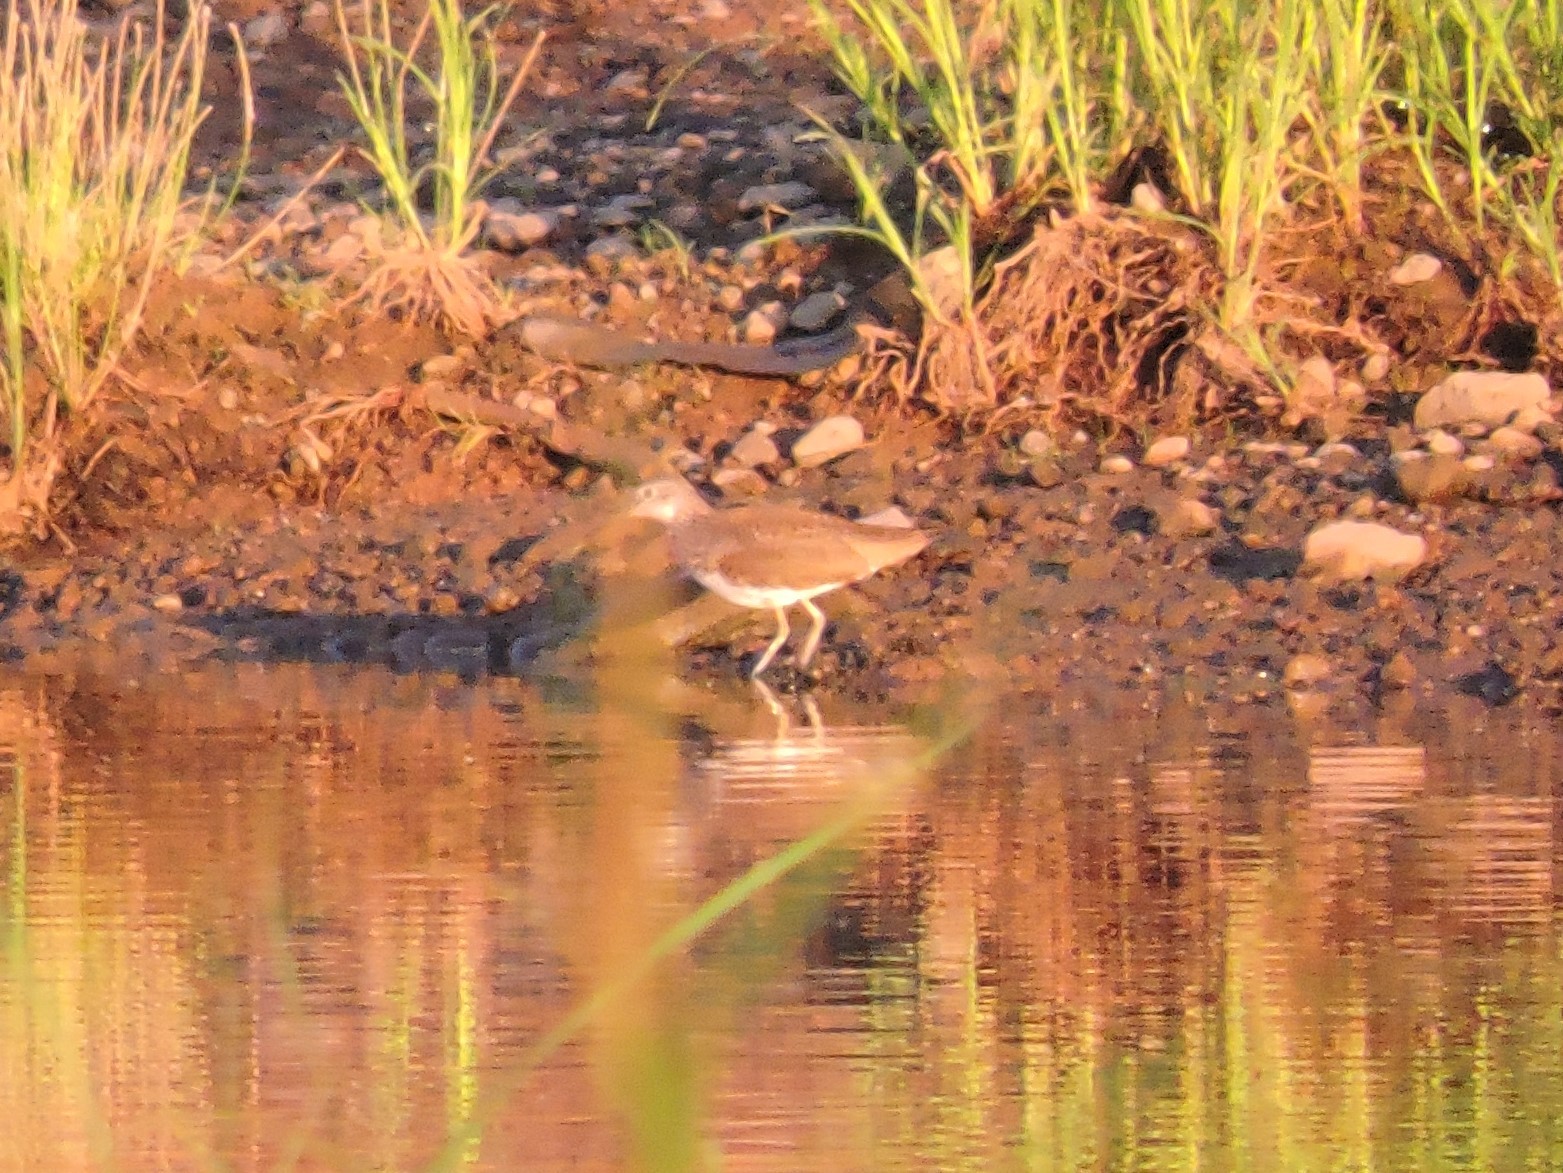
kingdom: Animalia
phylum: Chordata
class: Aves
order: Charadriiformes
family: Scolopacidae
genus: Tringa
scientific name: Tringa ochropus
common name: Green sandpiper
